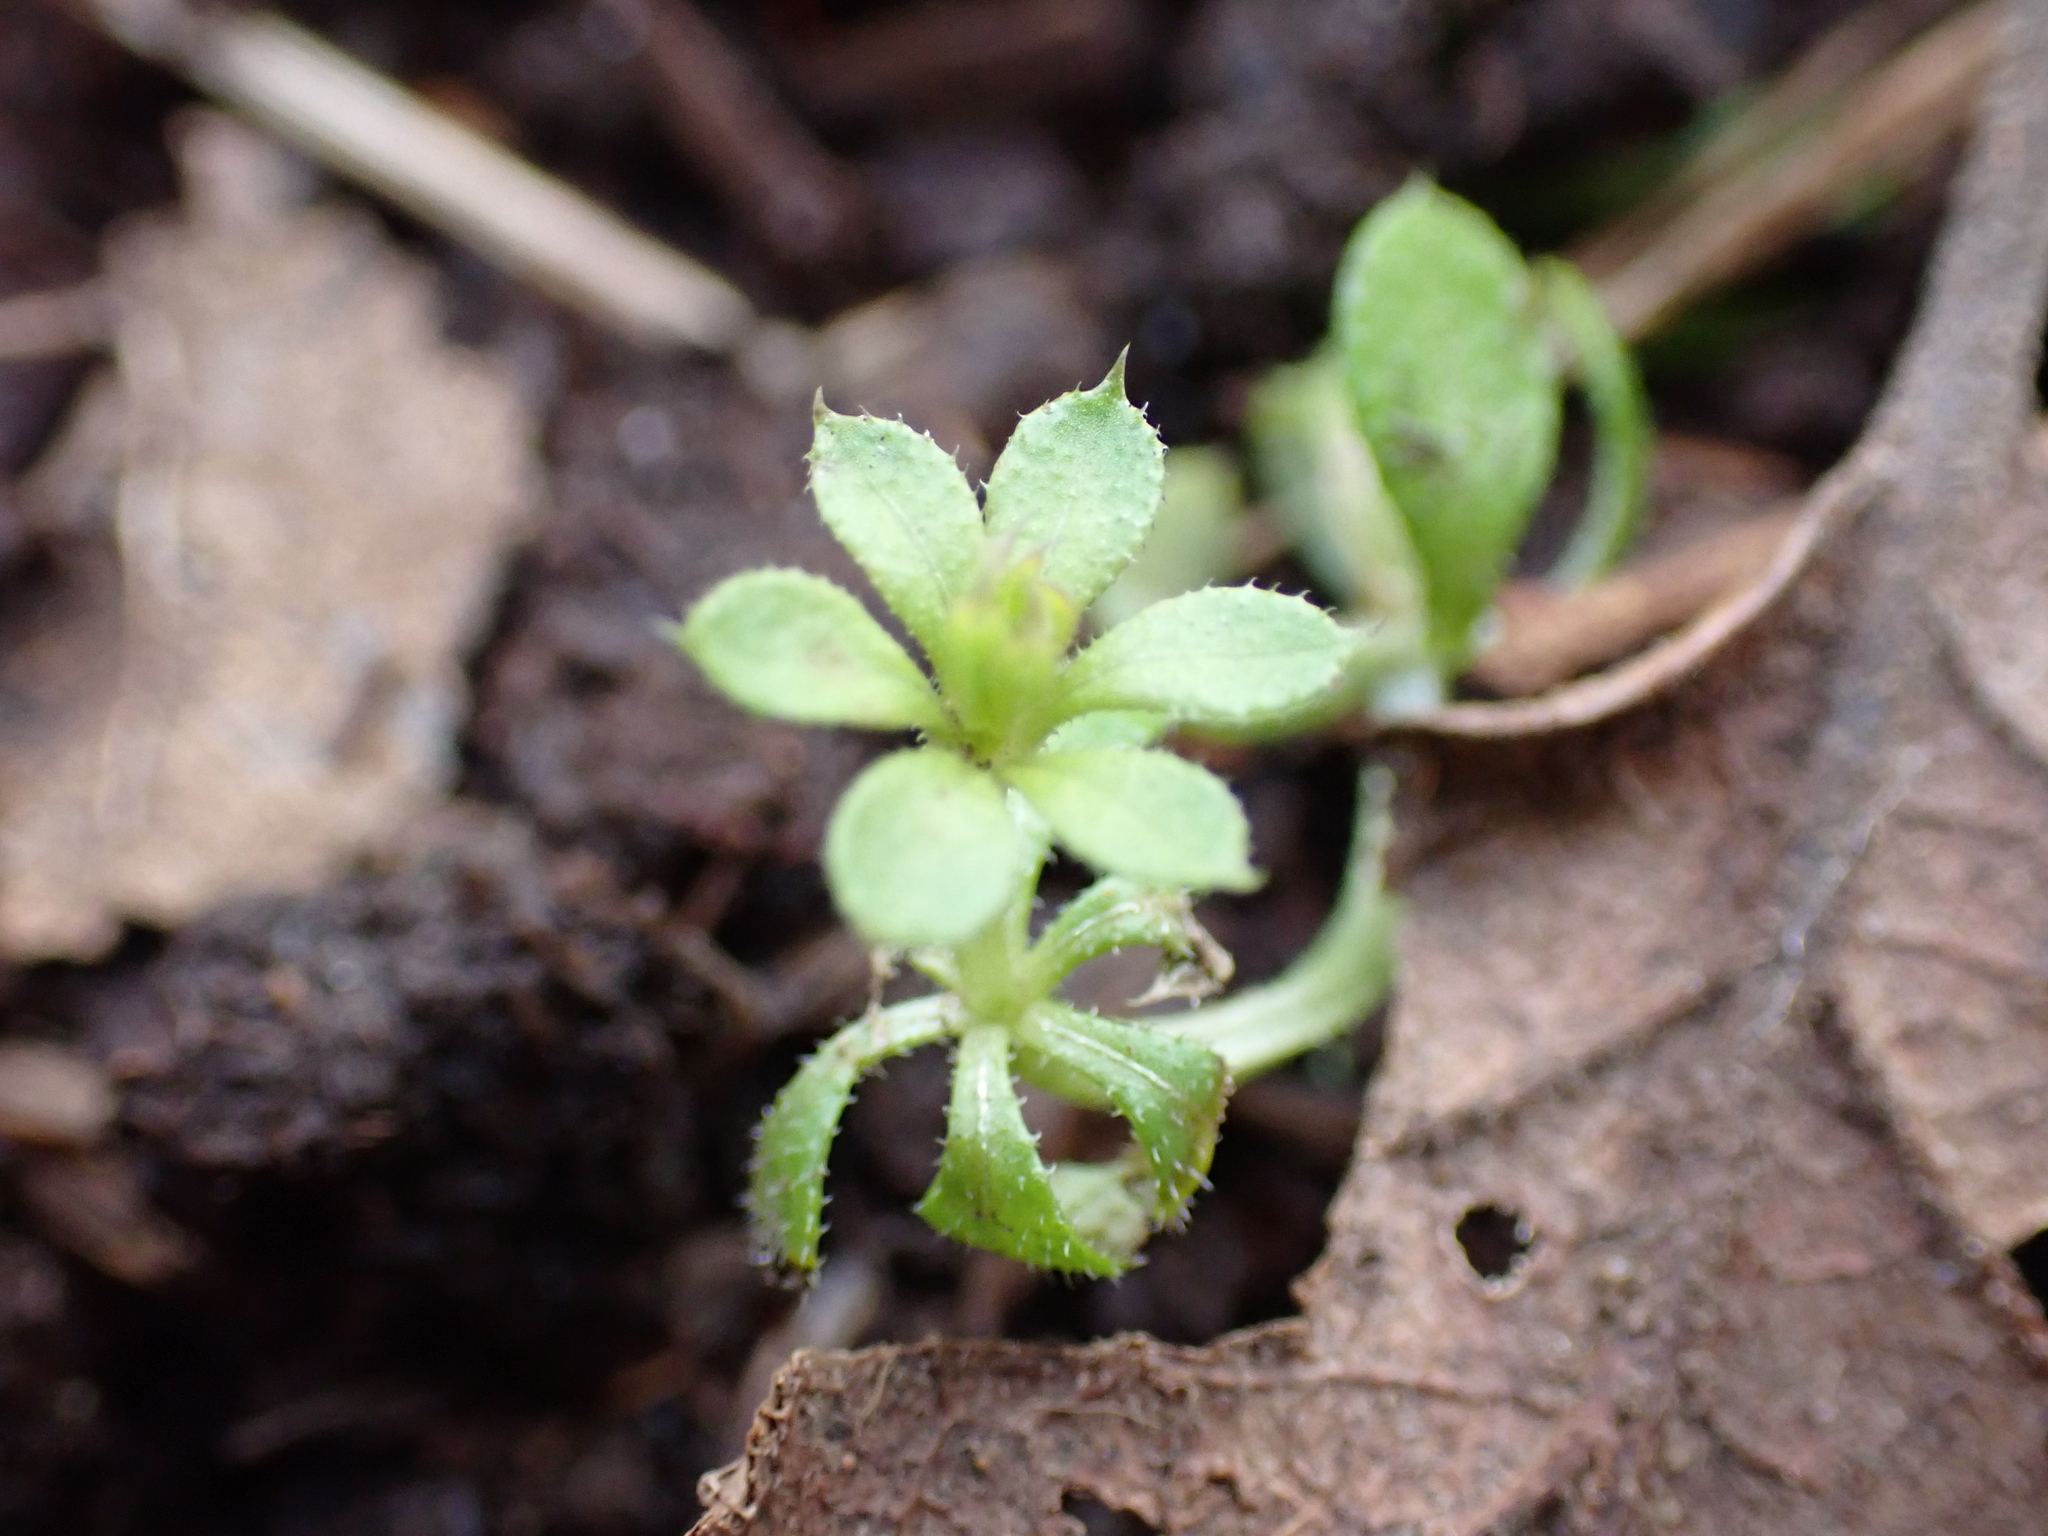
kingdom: Plantae
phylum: Tracheophyta
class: Magnoliopsida
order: Gentianales
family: Rubiaceae
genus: Galium
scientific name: Galium aparine
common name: Cleavers
